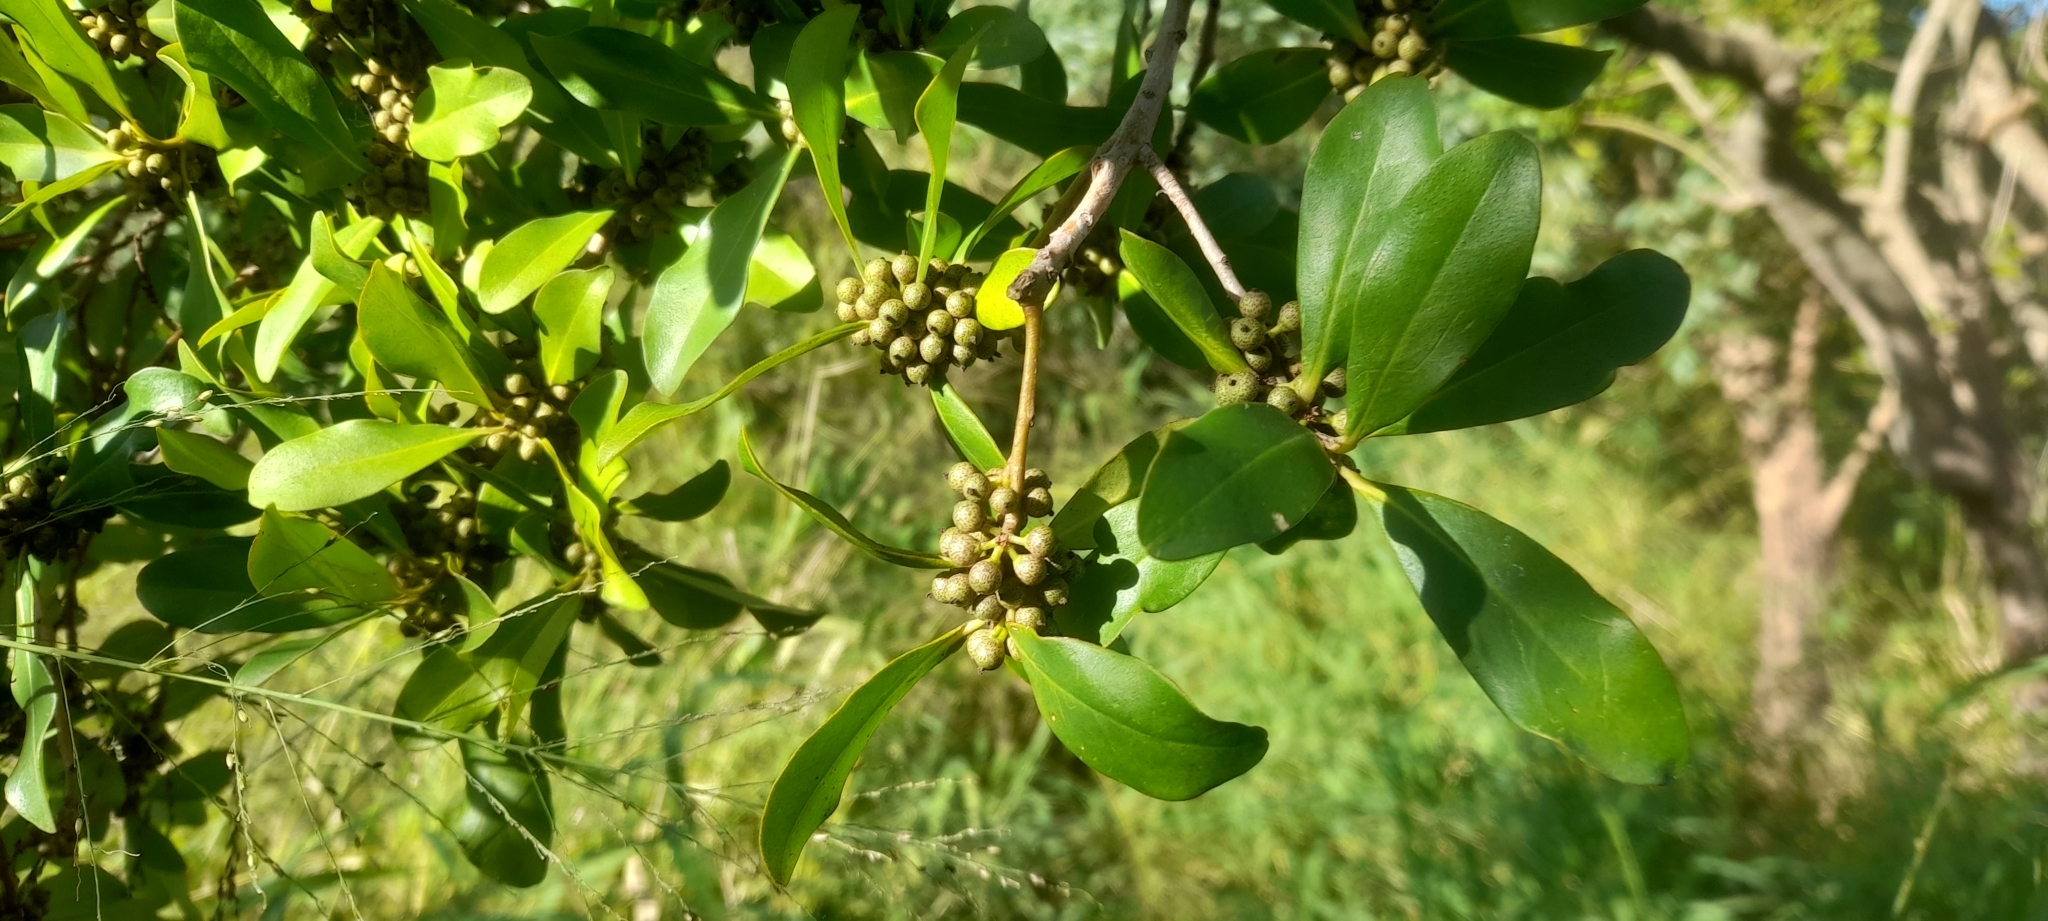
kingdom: Plantae
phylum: Tracheophyta
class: Magnoliopsida
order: Ericales
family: Primulaceae
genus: Myrsine
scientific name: Myrsine laetevirens
